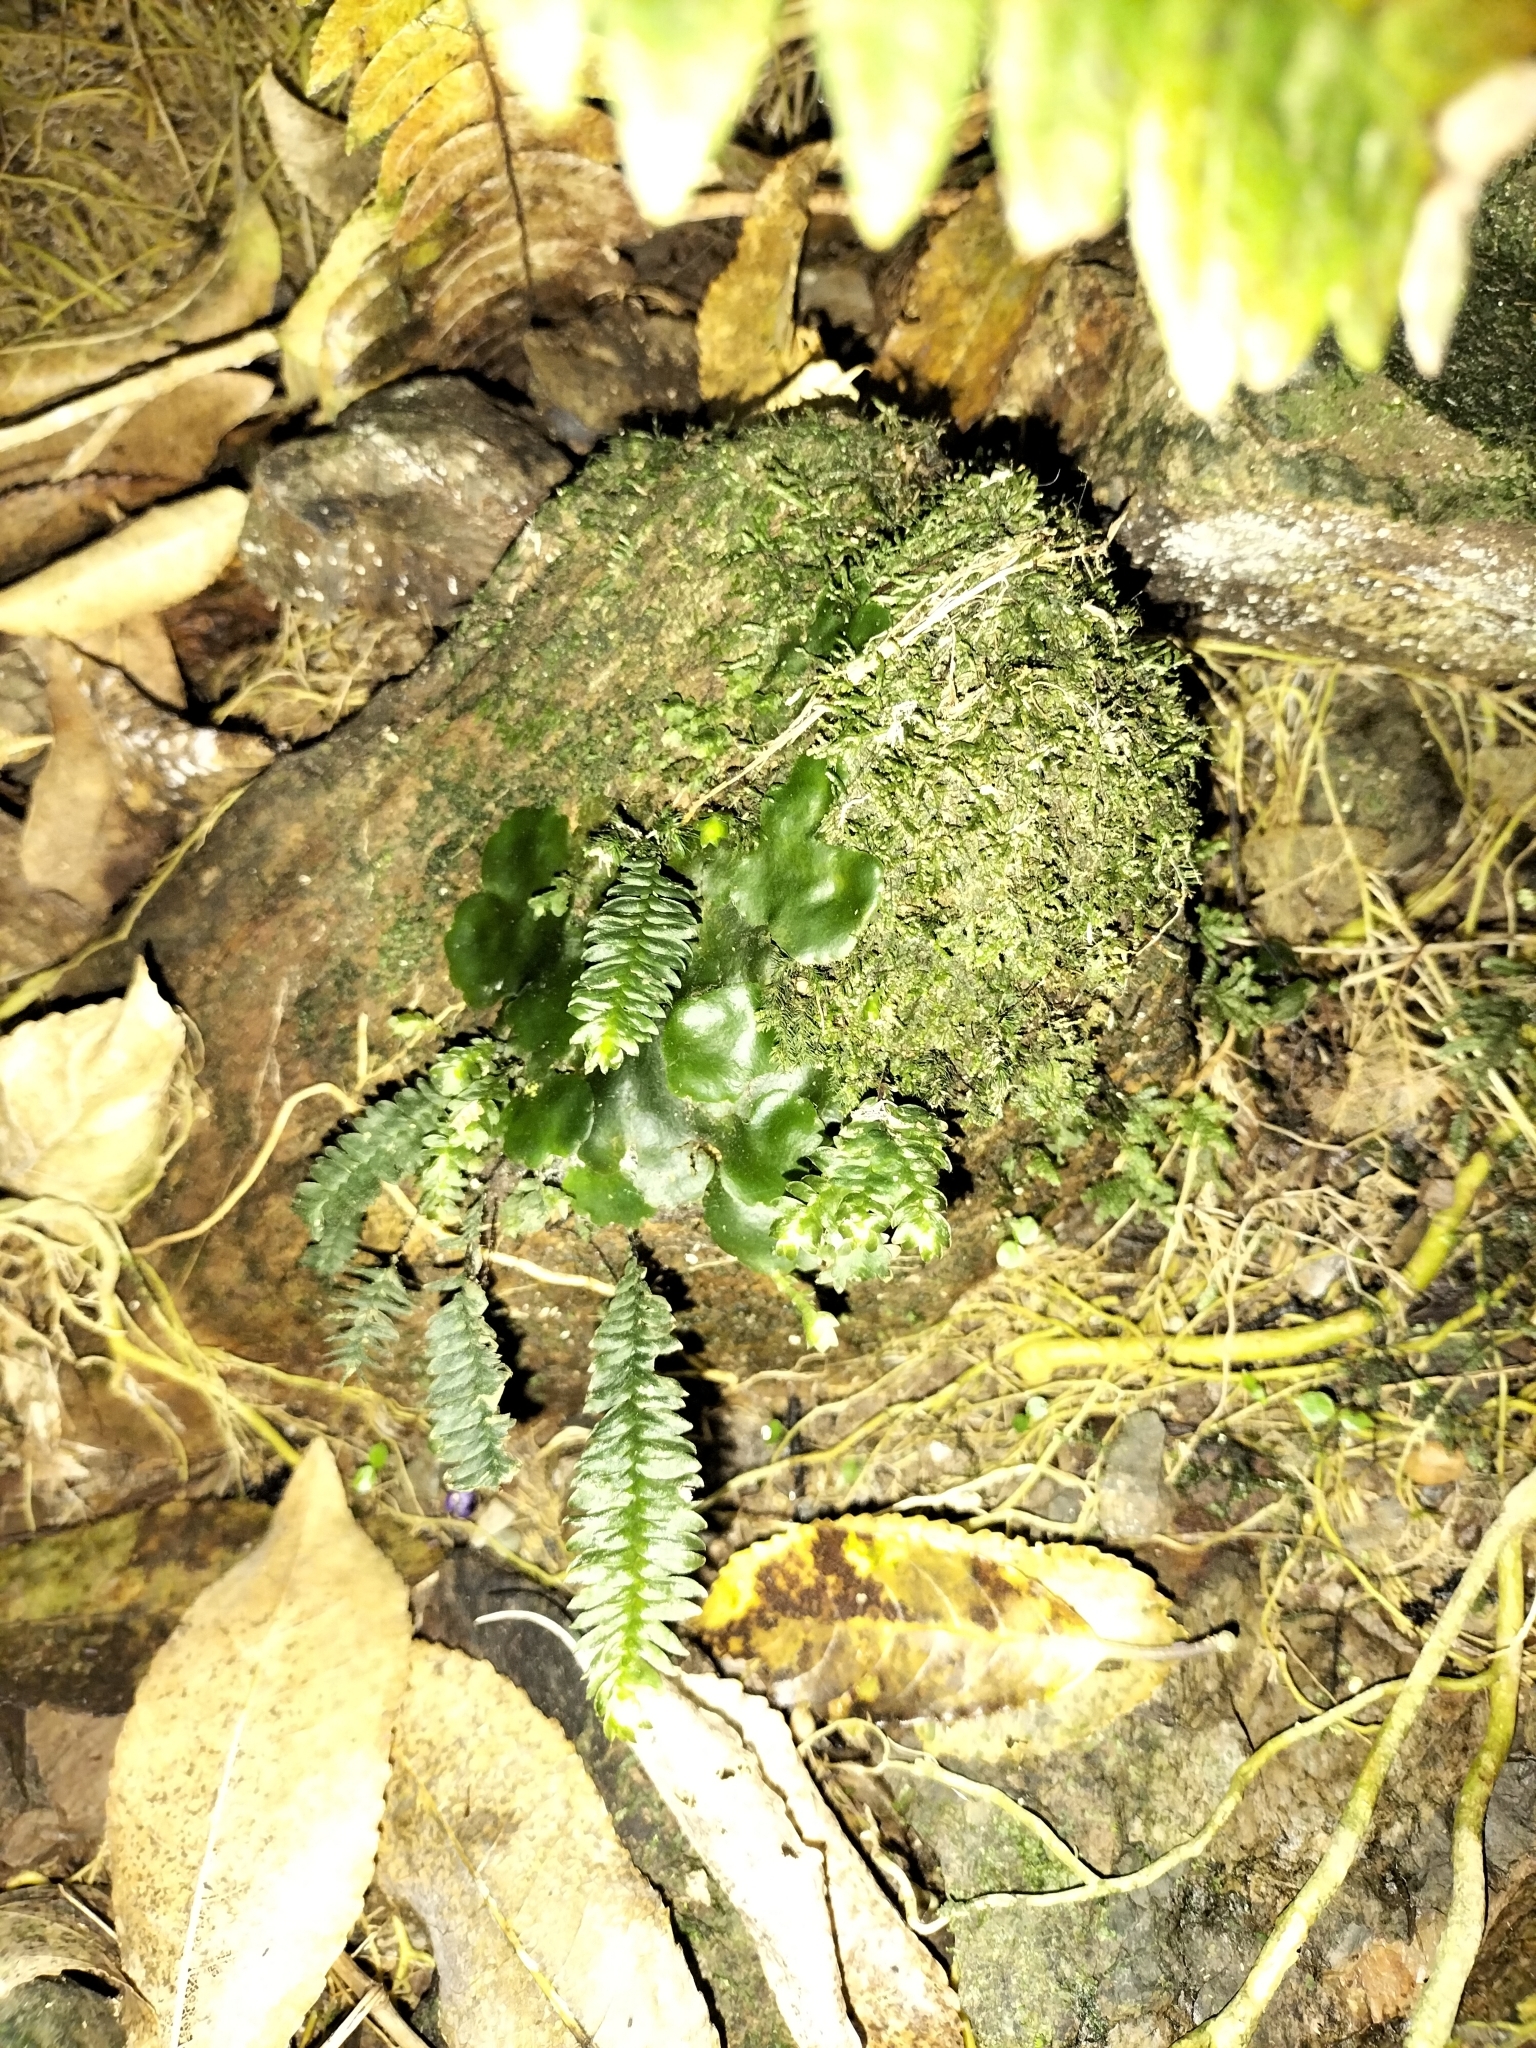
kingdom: Plantae
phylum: Bryophyta
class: Bryopsida
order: Hypopterygiales
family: Hypopterygiaceae
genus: Cyathophorum
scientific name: Cyathophorum bulbosum
